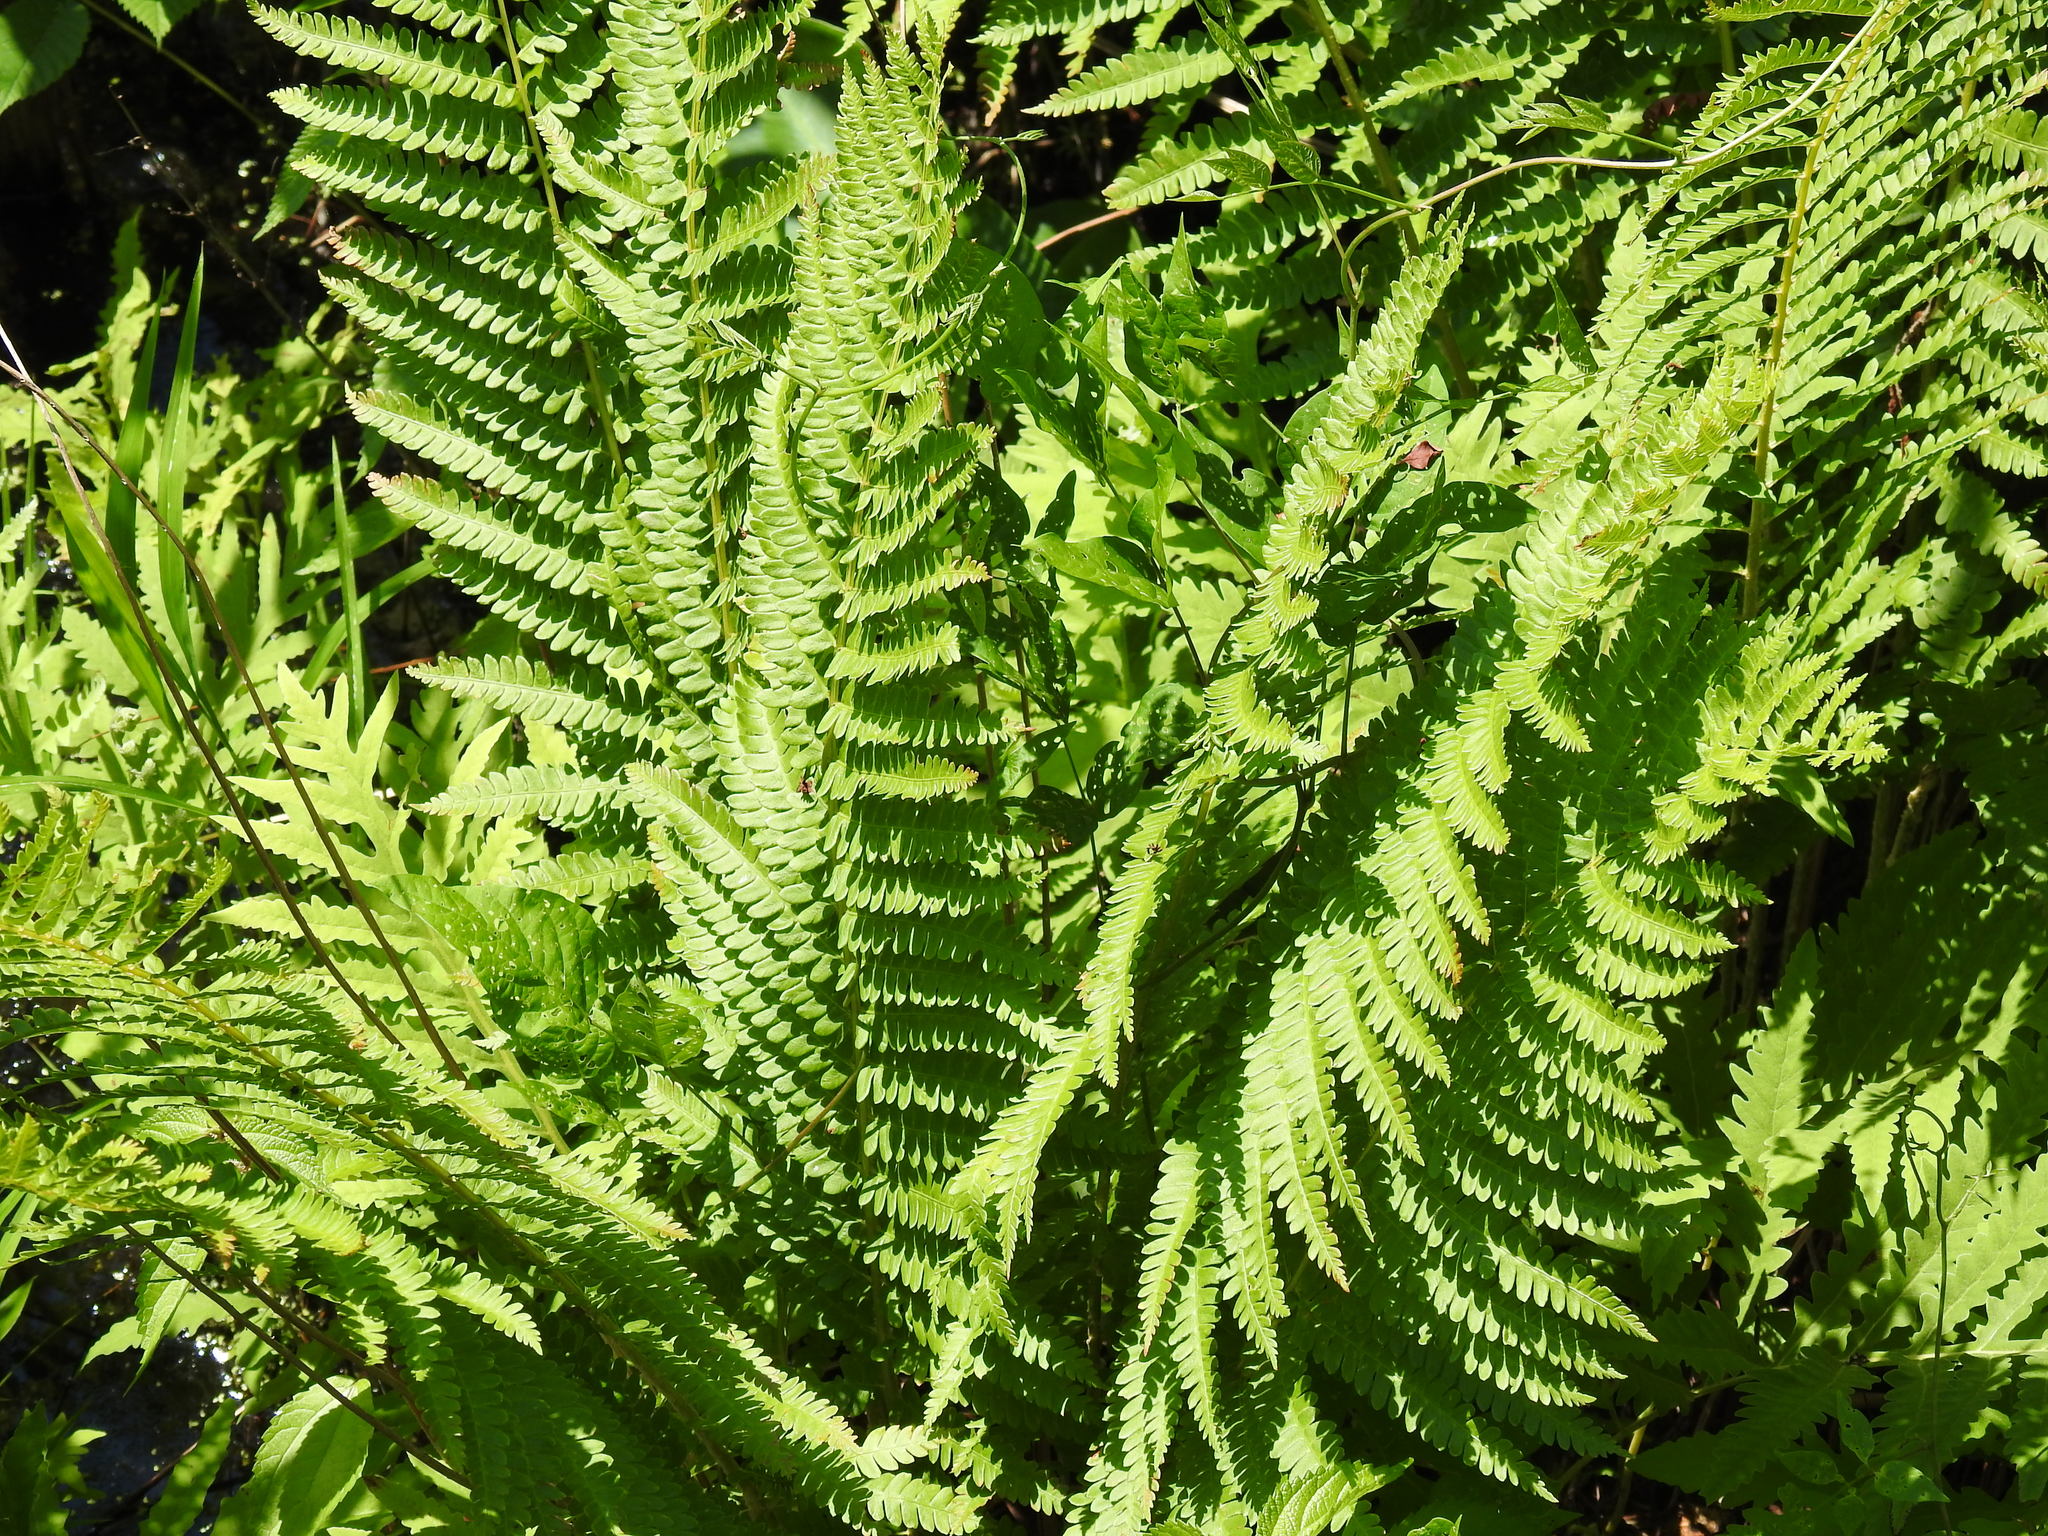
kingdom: Plantae
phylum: Tracheophyta
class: Polypodiopsida
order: Osmundales
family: Osmundaceae
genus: Osmundastrum
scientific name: Osmundastrum cinnamomeum
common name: Cinnamon fern
